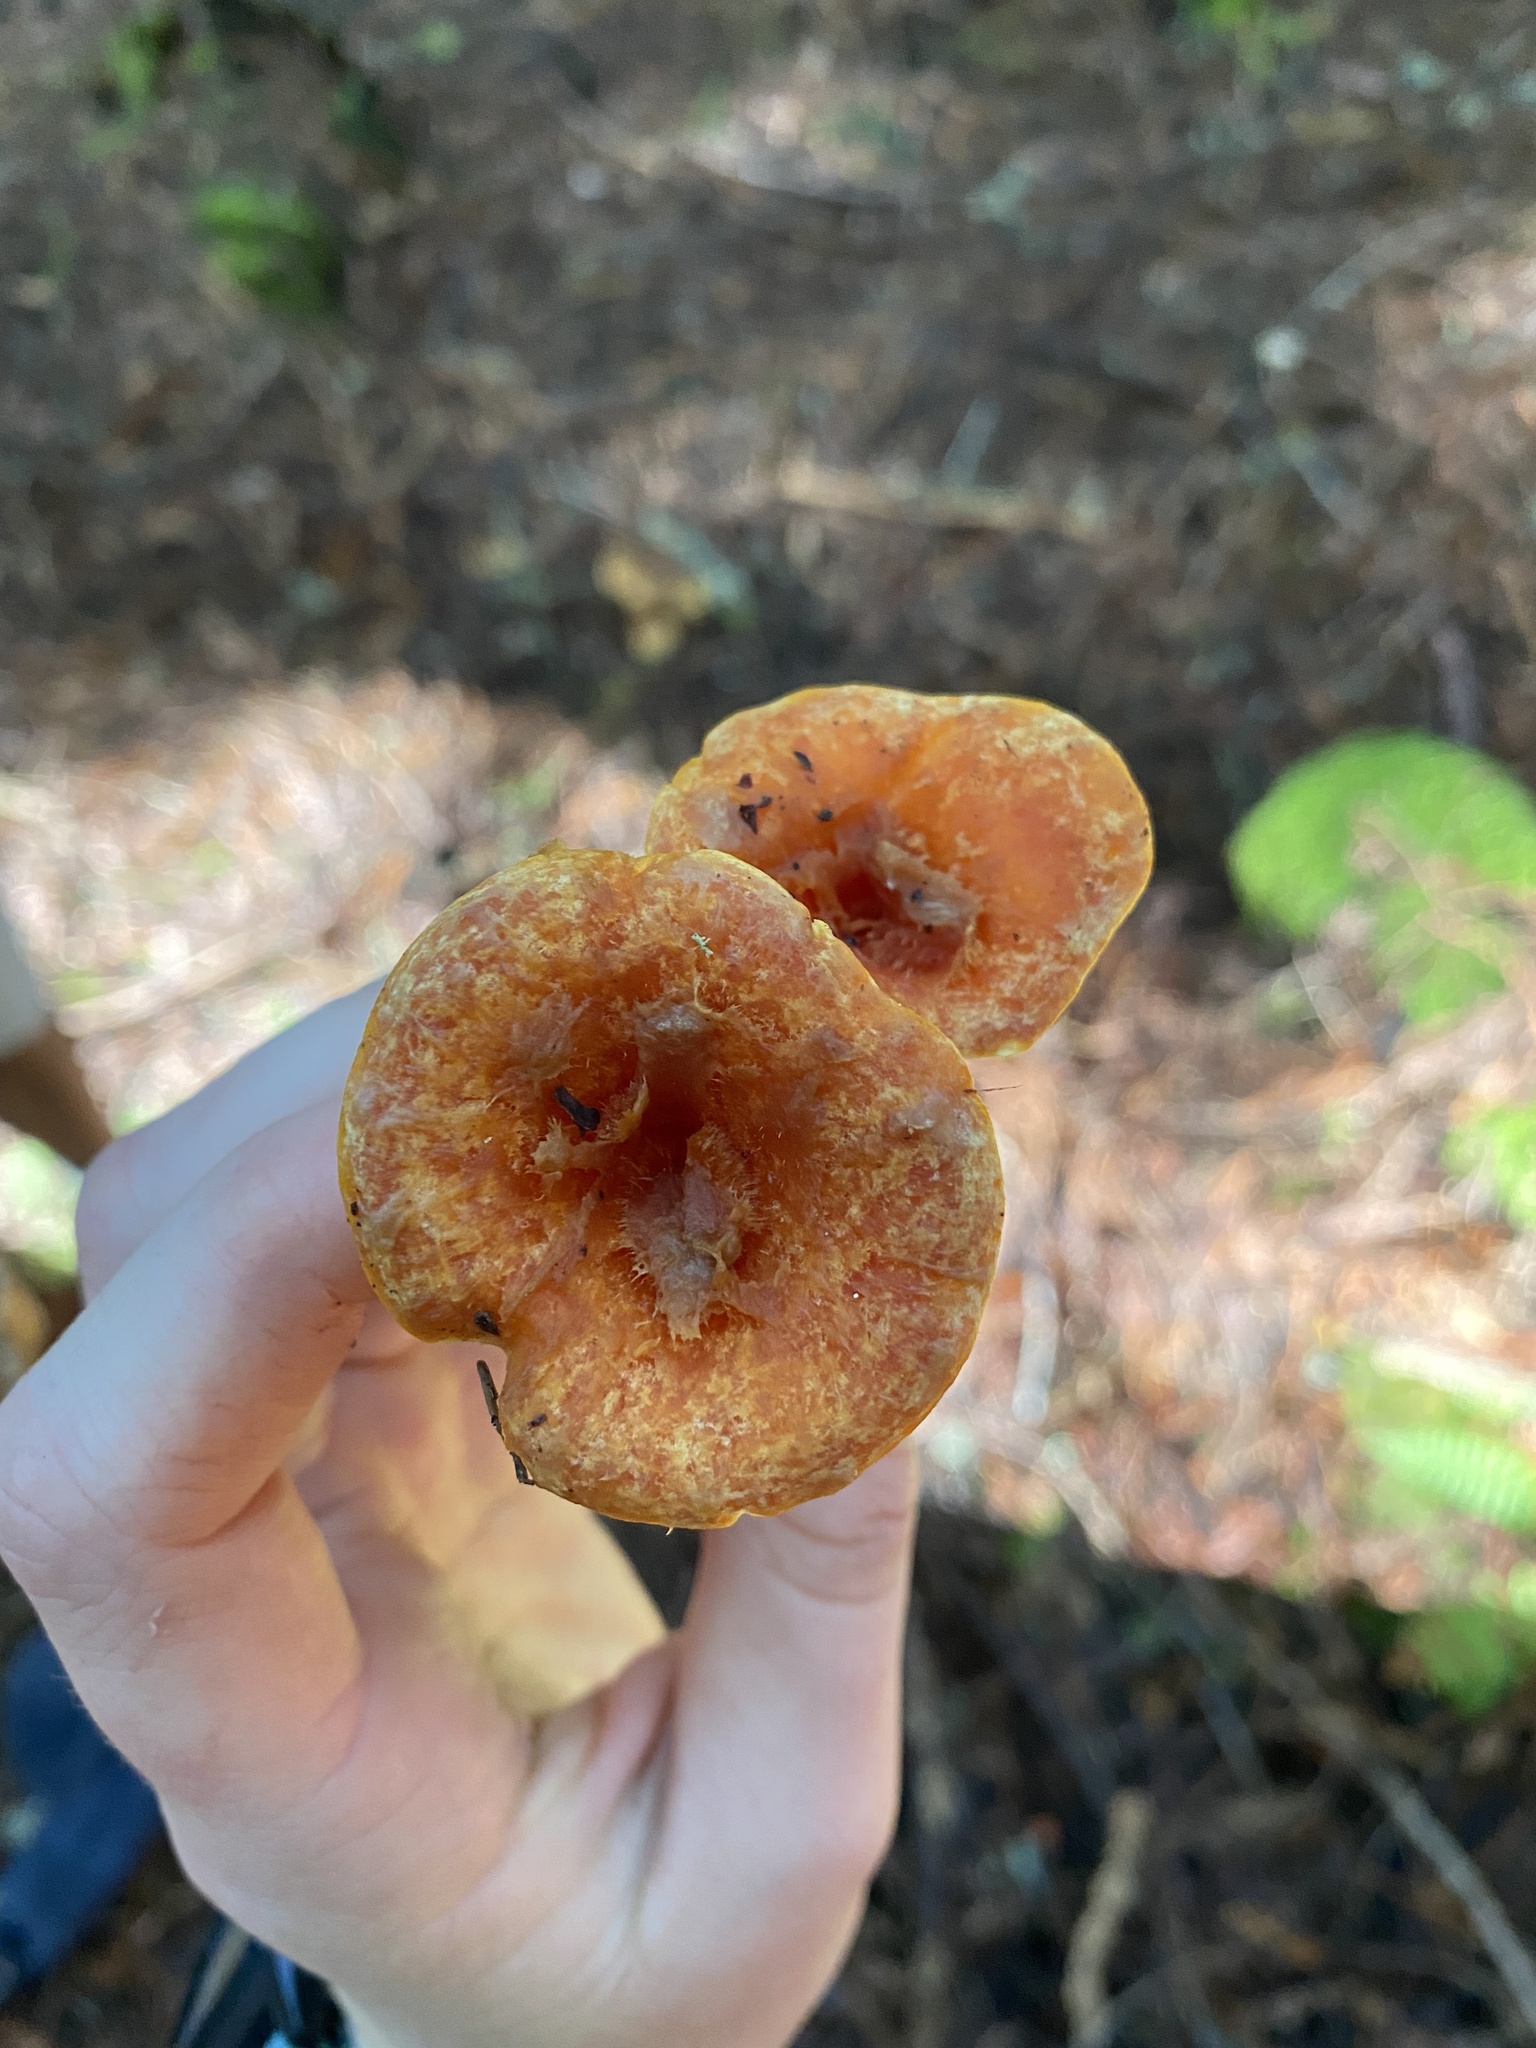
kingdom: Fungi
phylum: Basidiomycota
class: Agaricomycetes
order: Gomphales
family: Gomphaceae
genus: Turbinellus
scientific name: Turbinellus floccosus
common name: Scaly chanterelle
